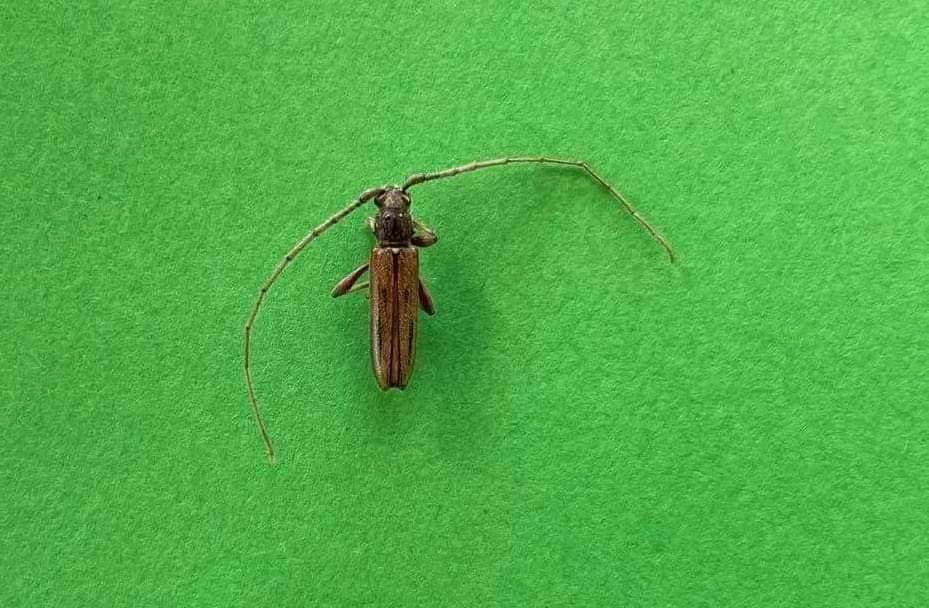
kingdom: Animalia
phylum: Arthropoda
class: Insecta
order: Coleoptera
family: Cerambycidae
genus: Didymocantha
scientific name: Didymocantha sublineata
